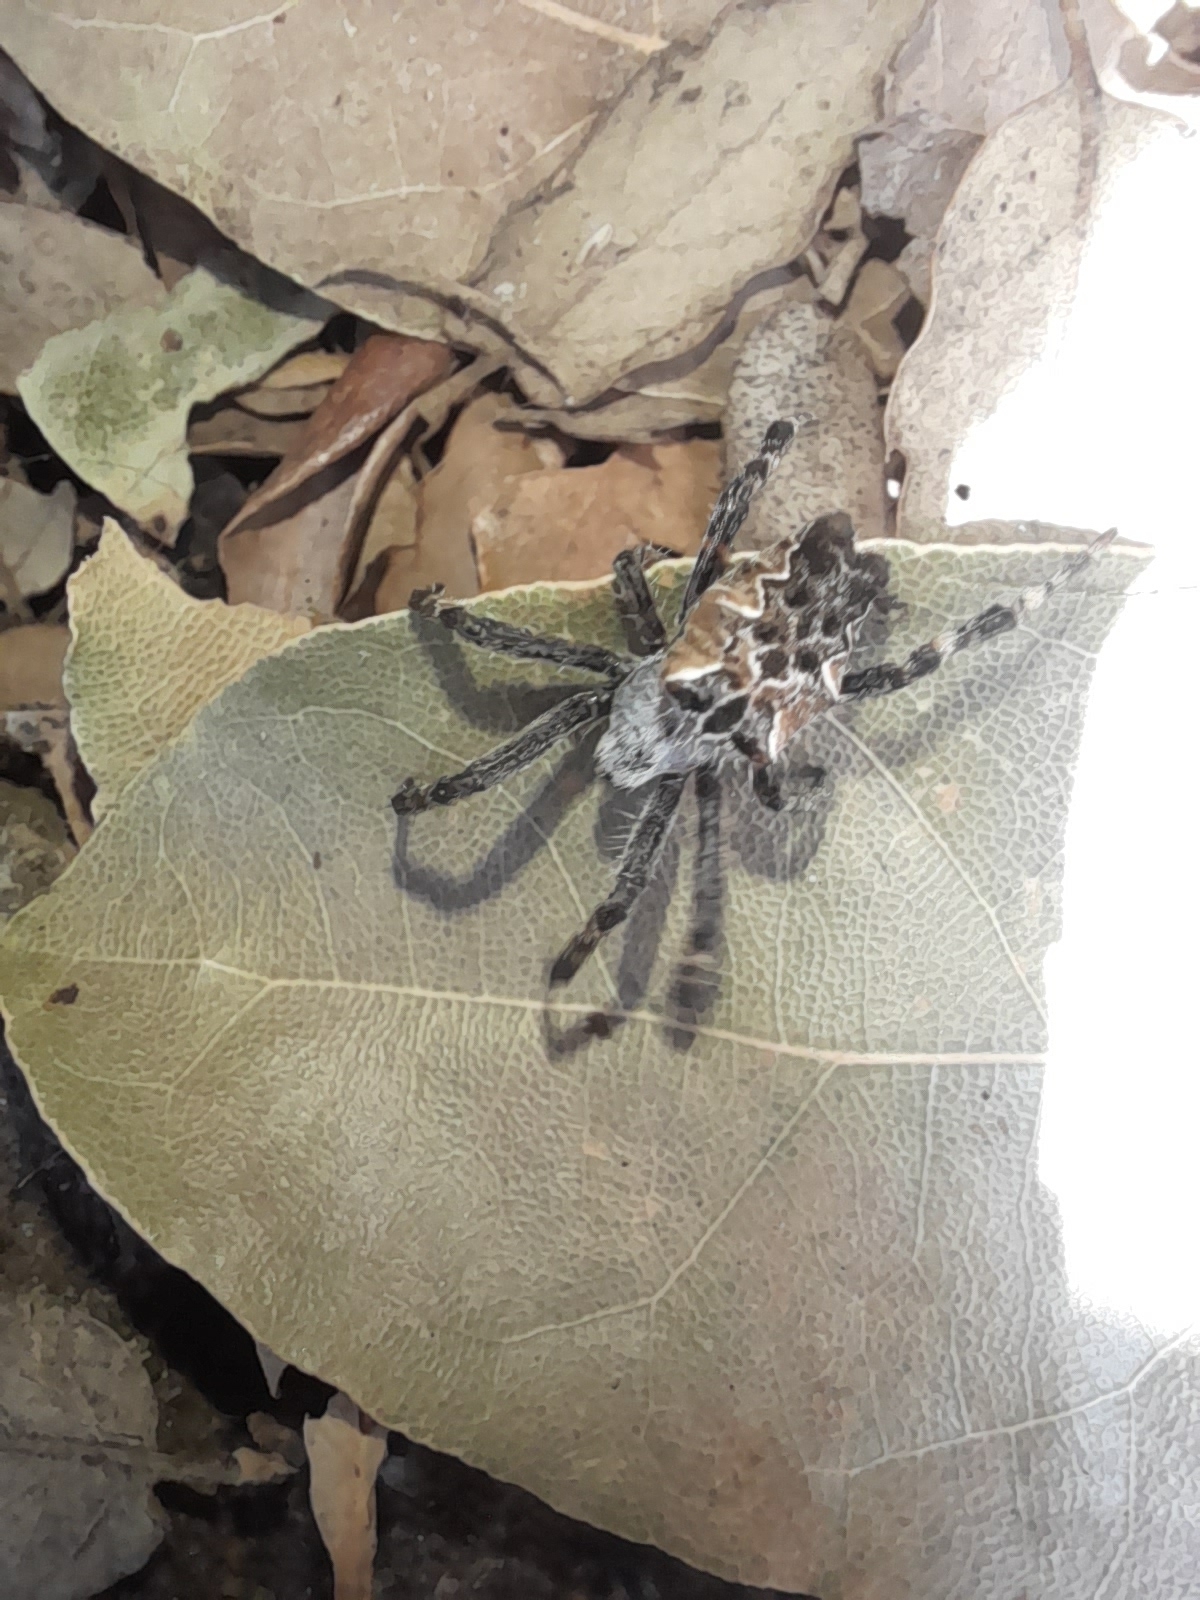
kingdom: Animalia
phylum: Arthropoda
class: Arachnida
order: Araneae
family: Araneidae
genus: Cyrtophora
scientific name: Cyrtophora citricola
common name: Orb weavers
